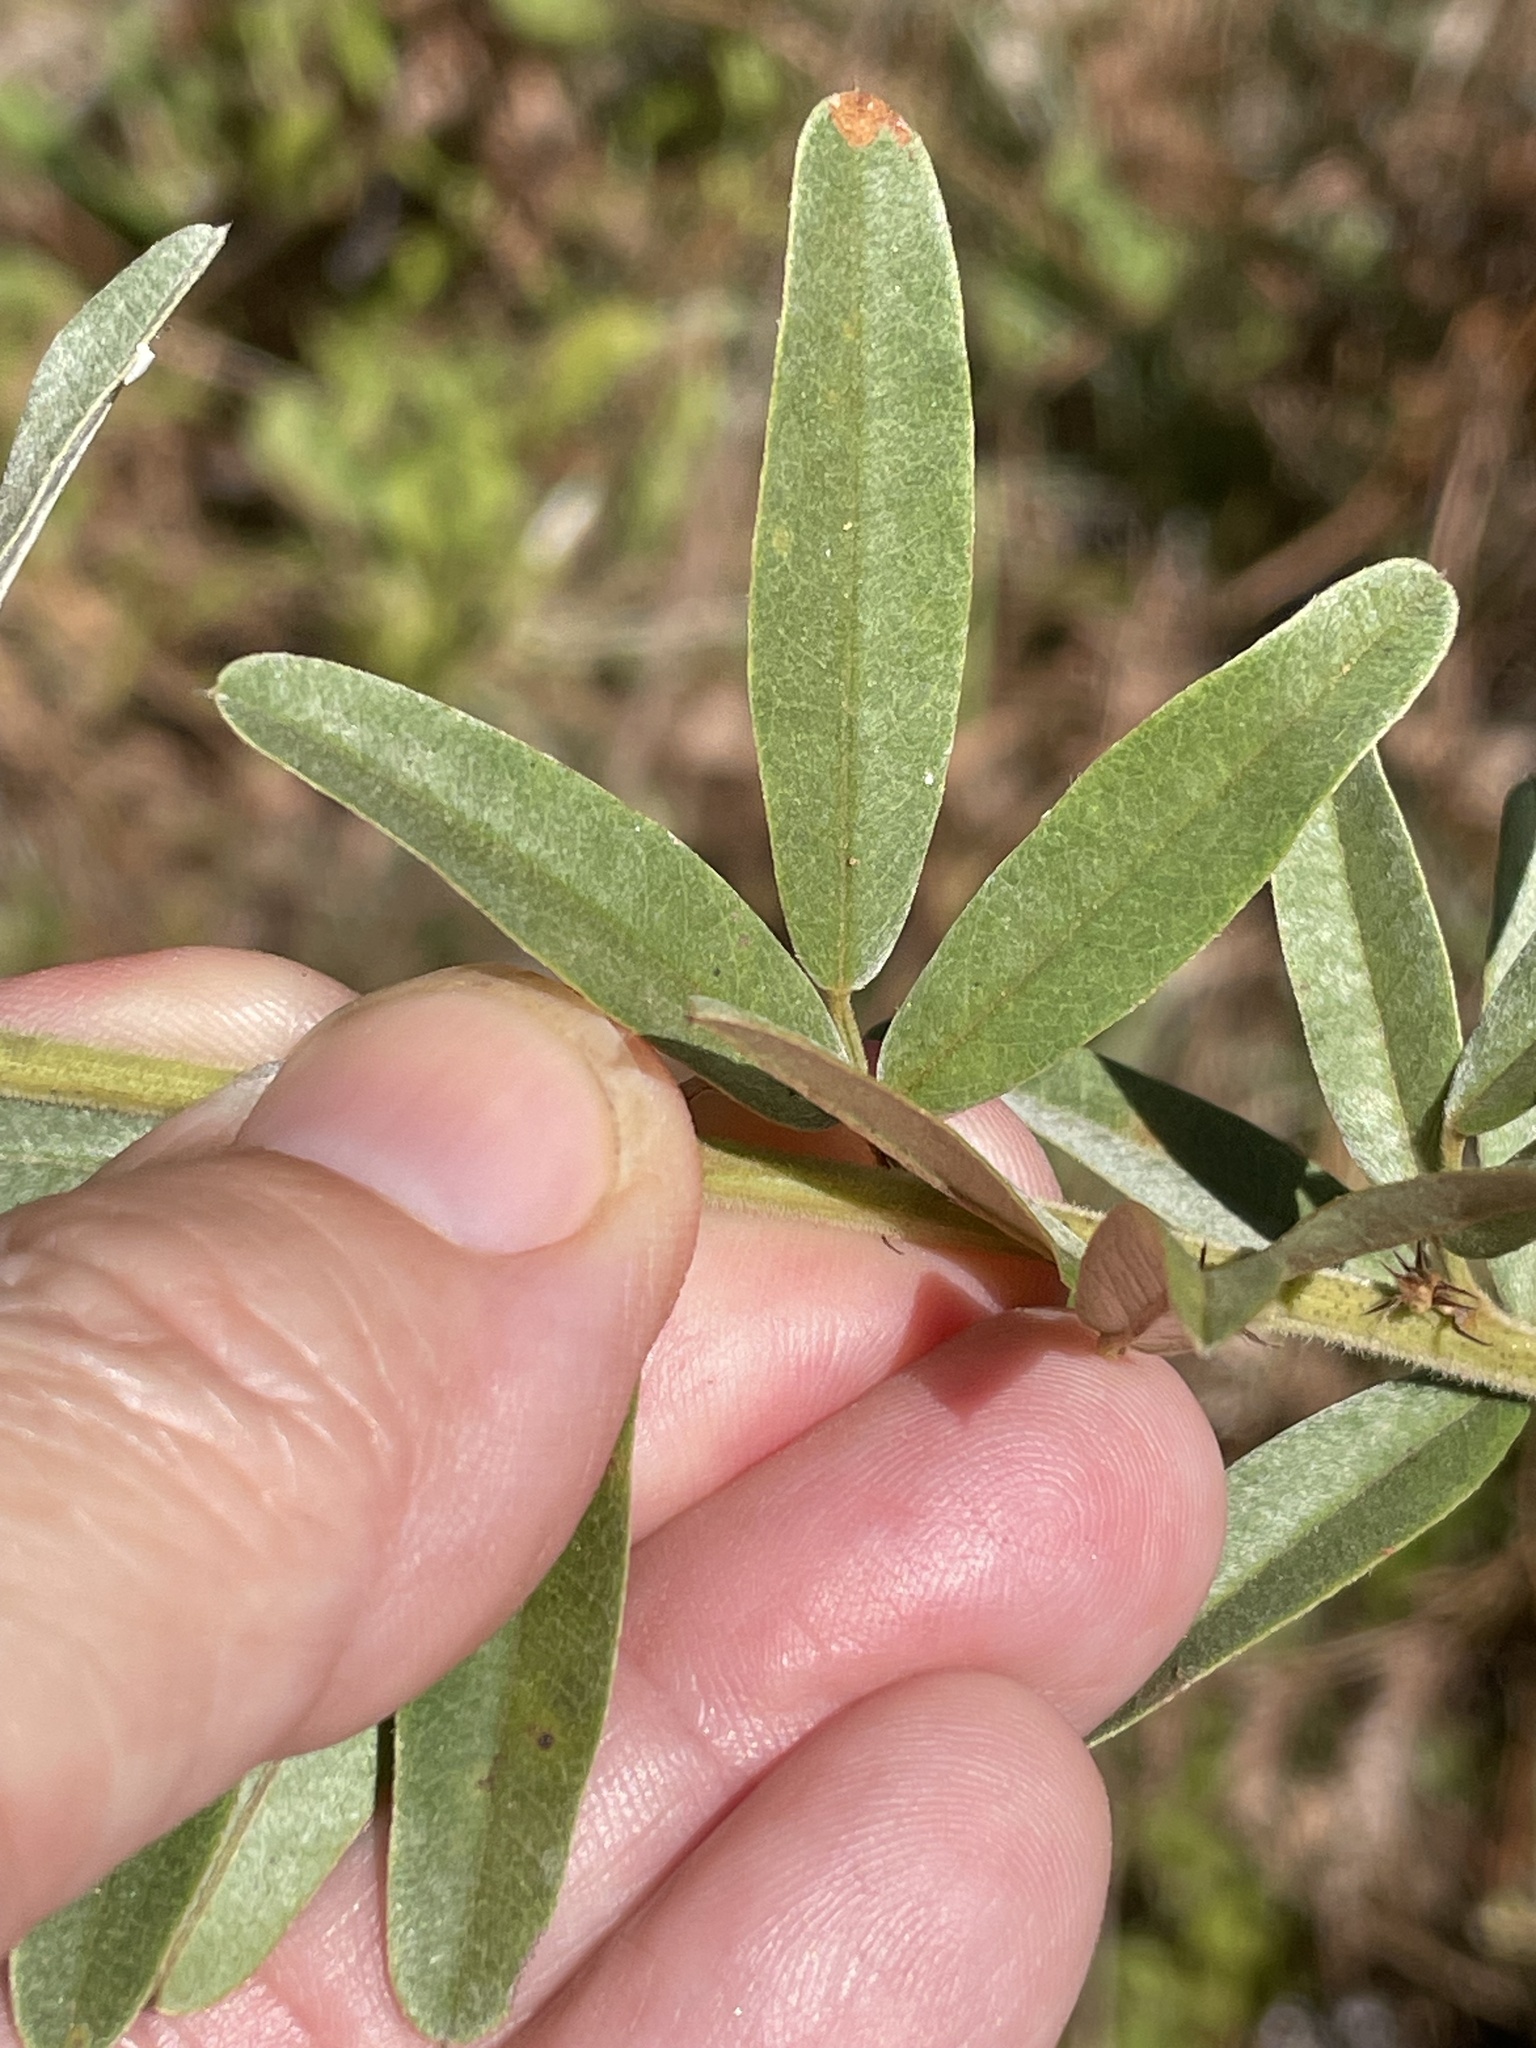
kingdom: Plantae
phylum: Tracheophyta
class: Magnoliopsida
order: Fabales
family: Fabaceae
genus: Lespedeza
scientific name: Lespedeza capitata
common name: Dusty clover
